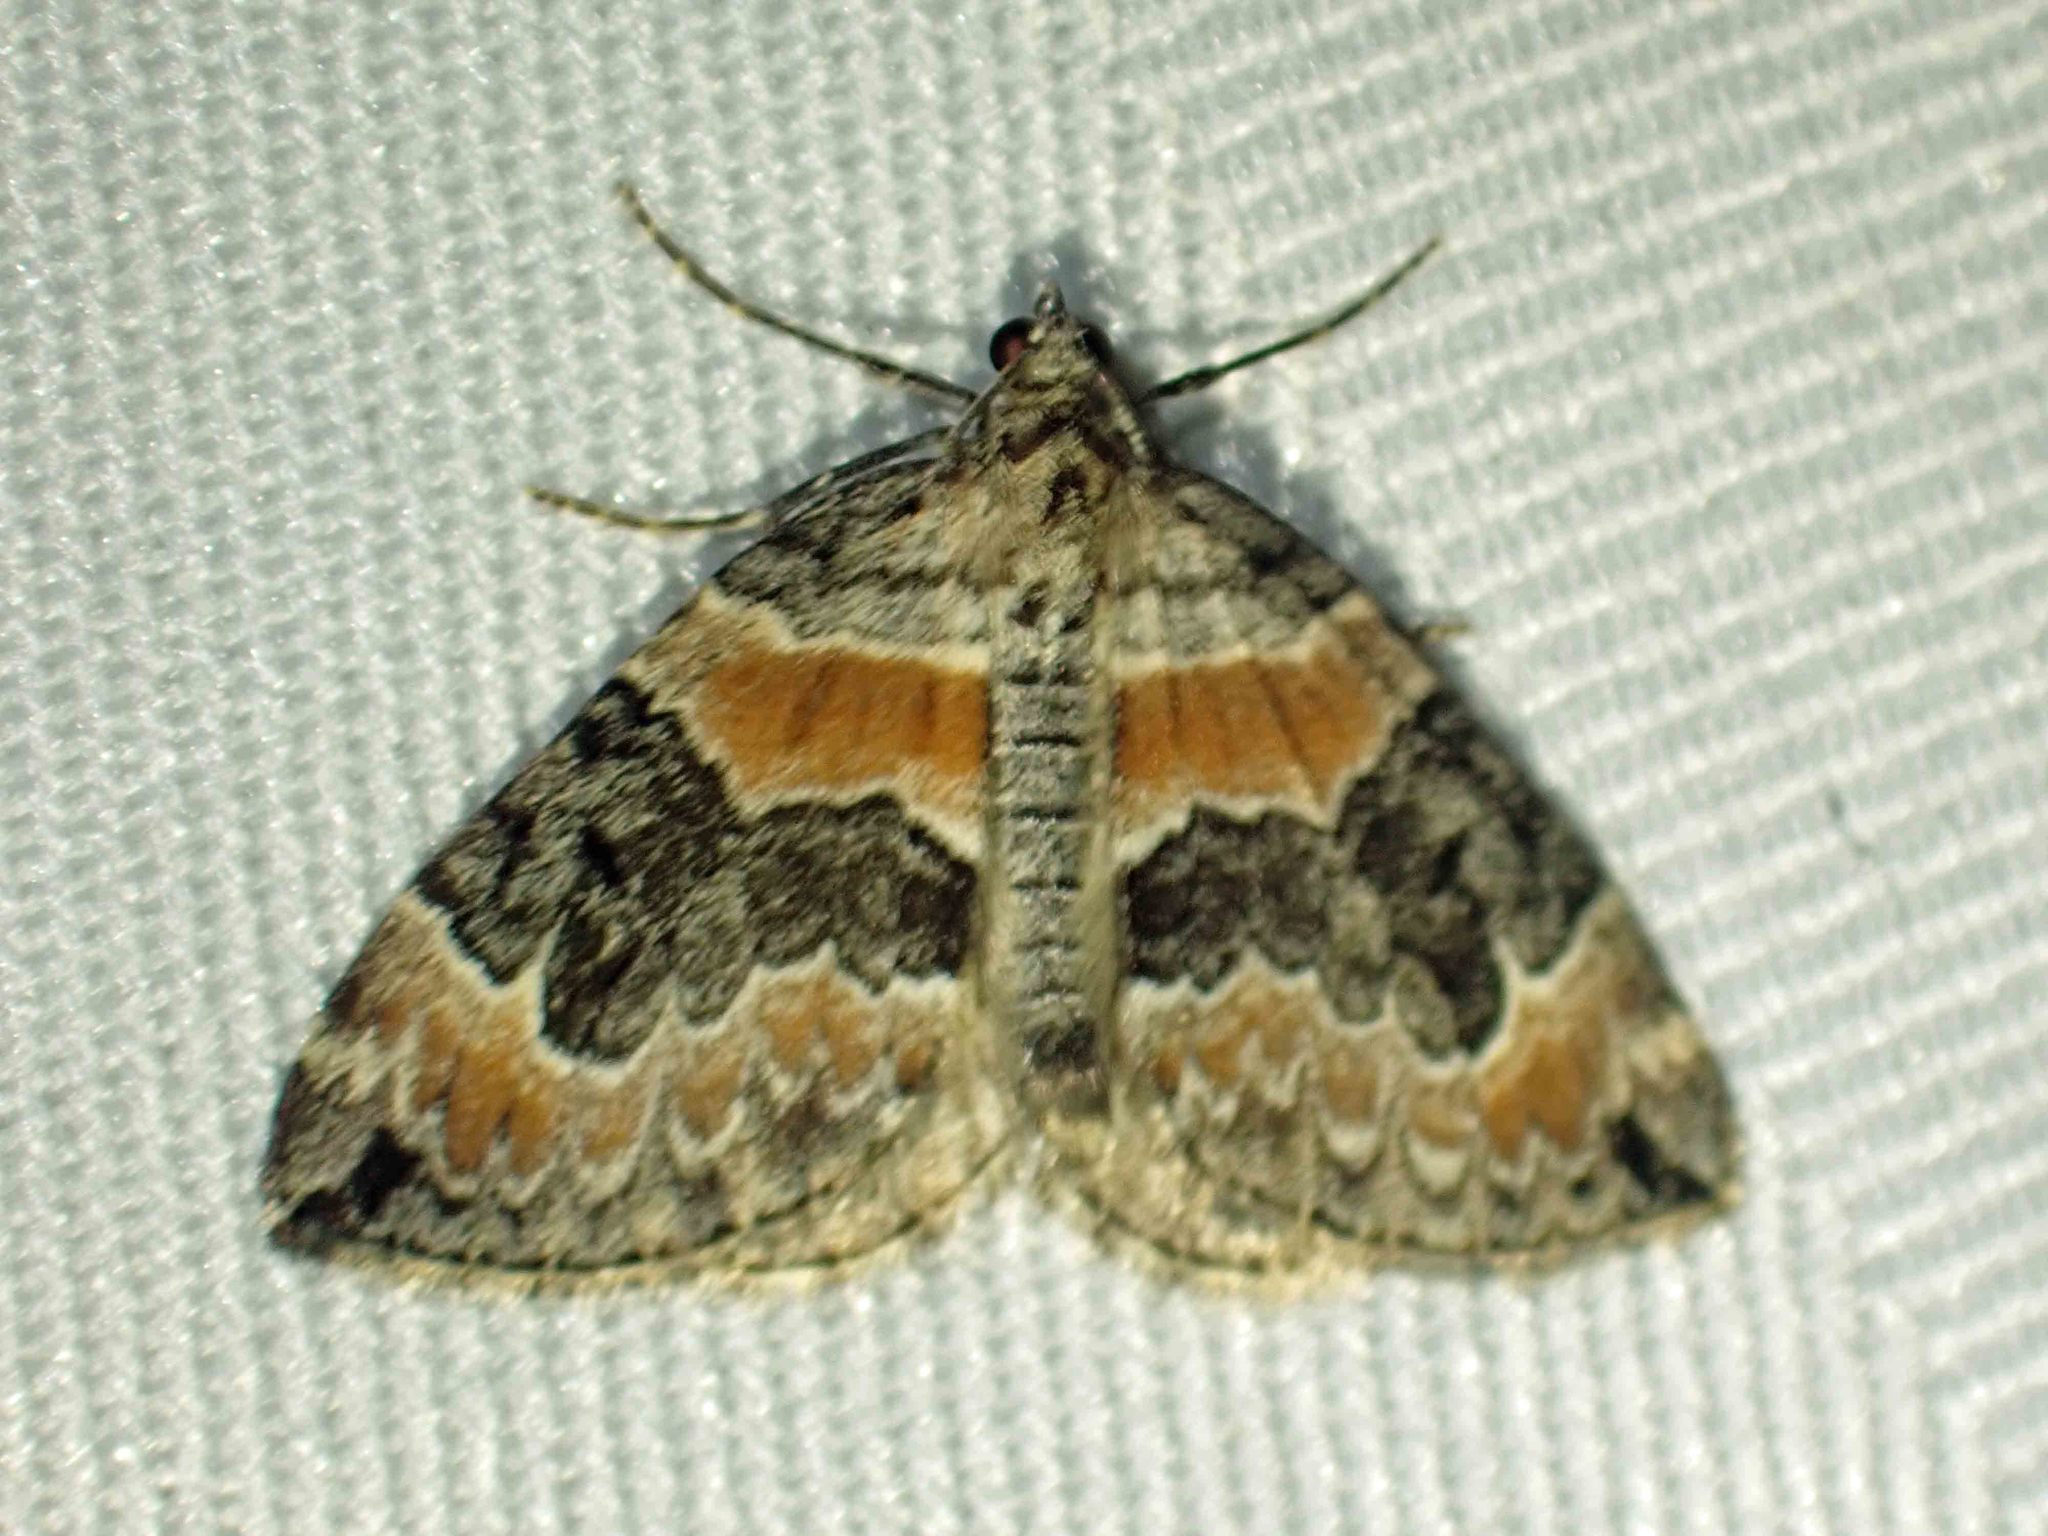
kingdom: Animalia
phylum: Arthropoda
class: Insecta
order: Lepidoptera
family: Geometridae
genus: Dysstroma
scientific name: Dysstroma hersiliata
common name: Orange-barred carpet
